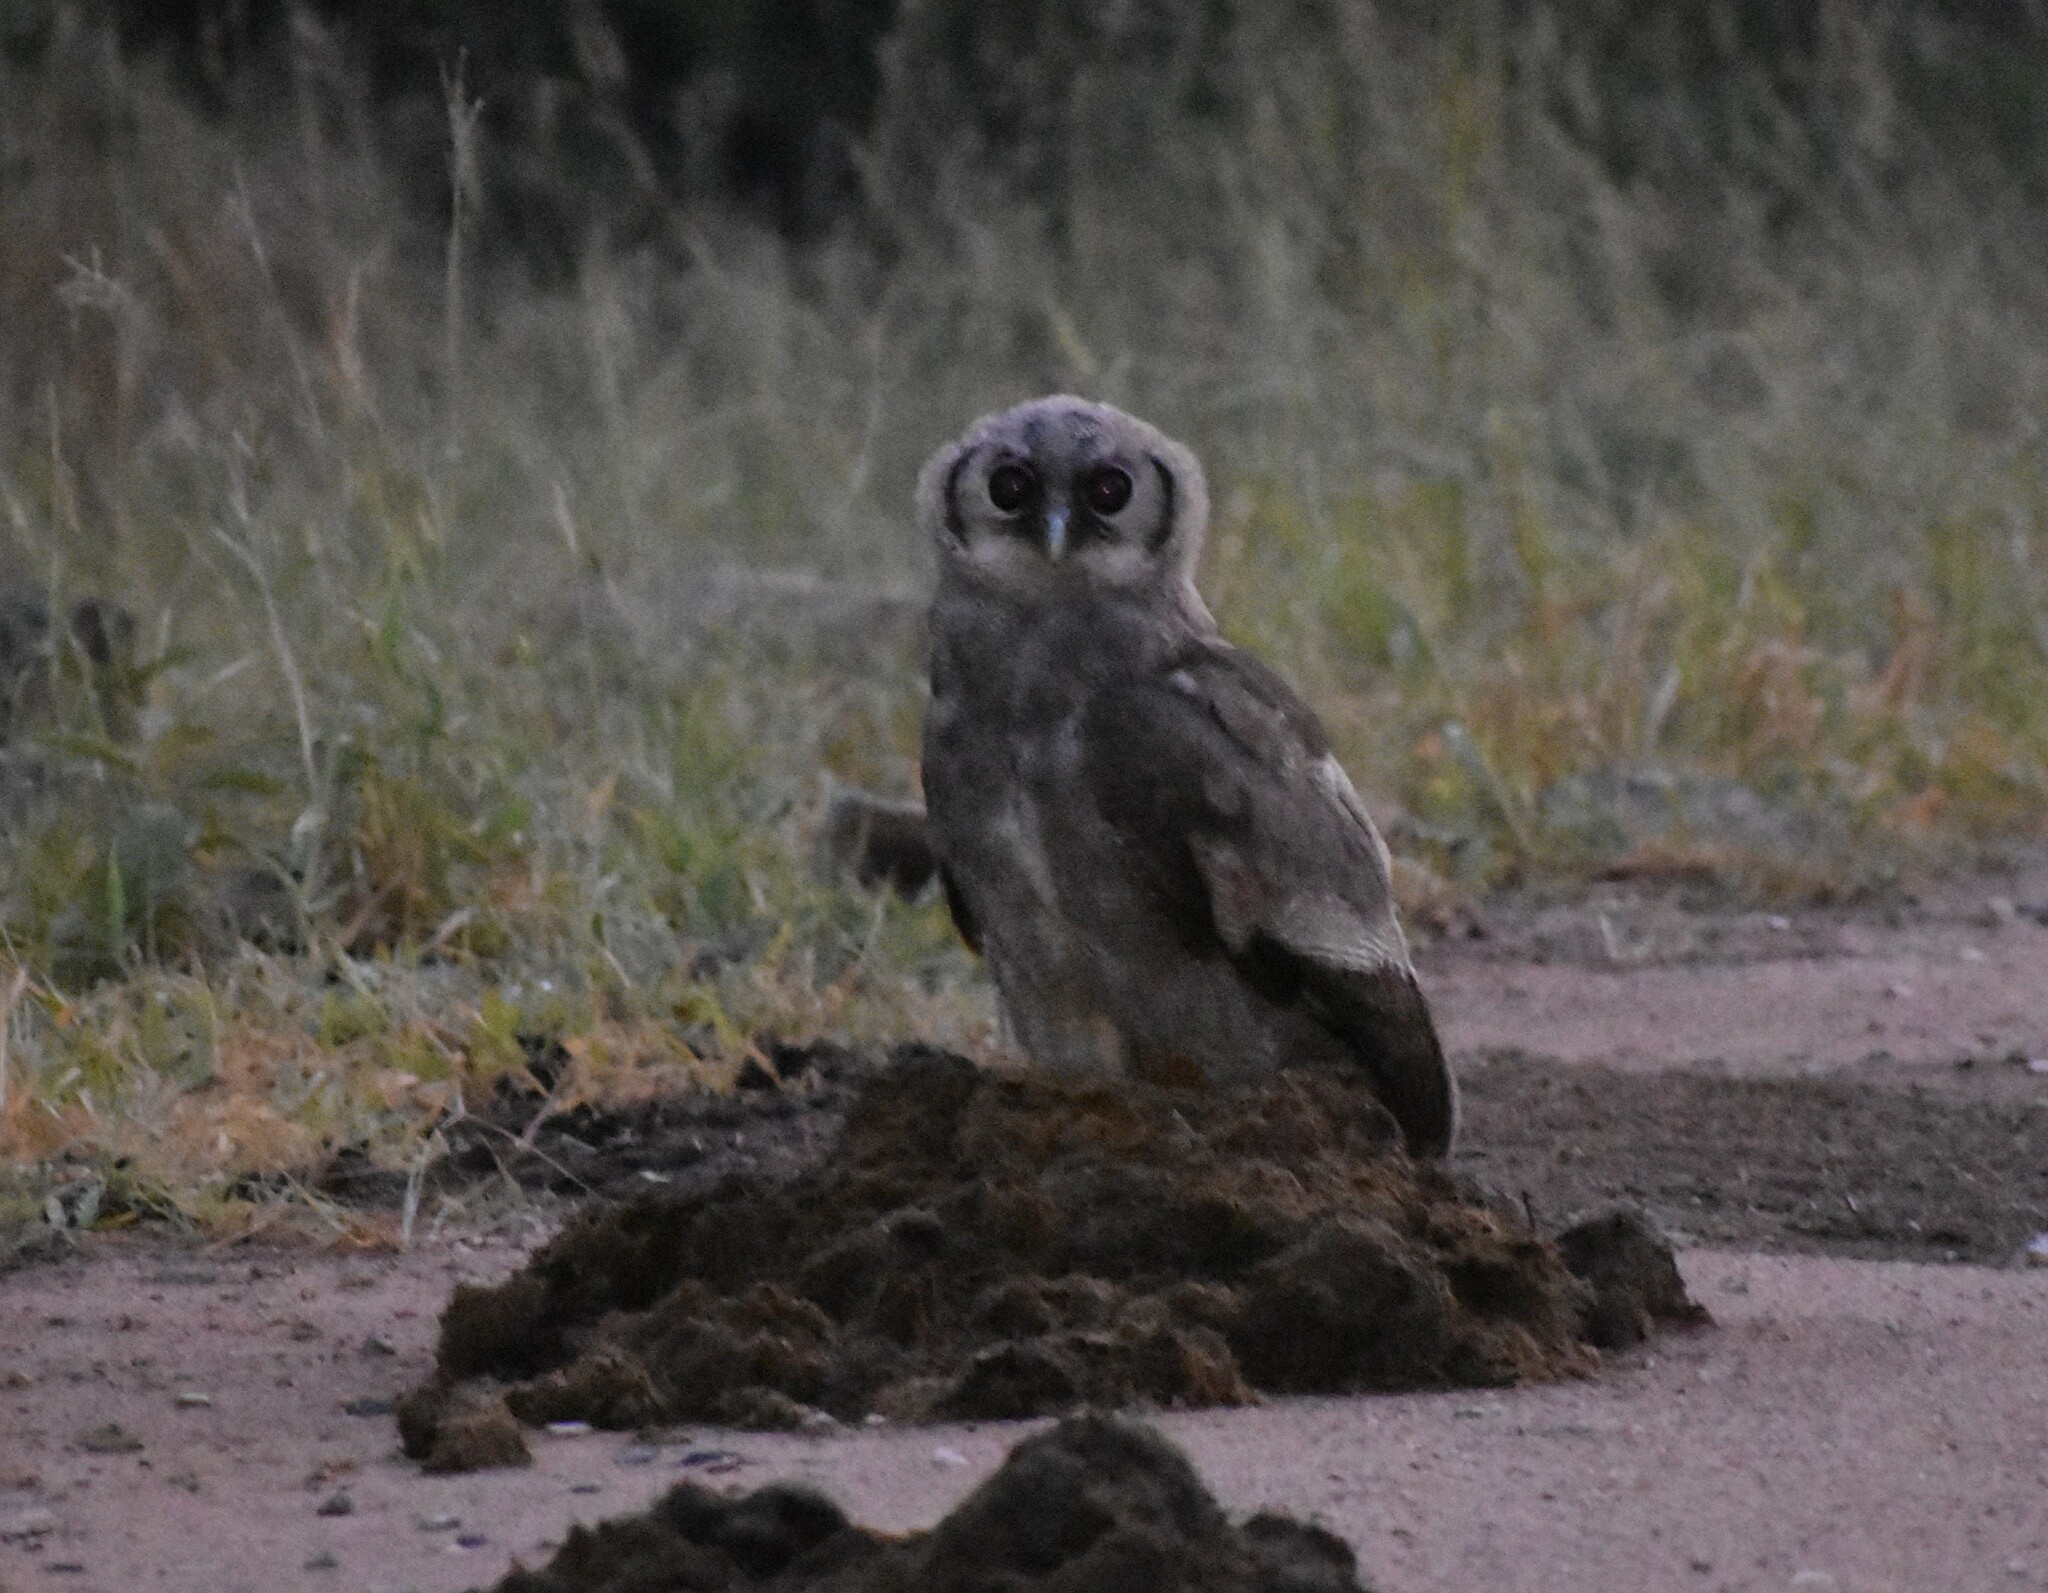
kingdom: Animalia
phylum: Chordata
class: Aves
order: Strigiformes
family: Strigidae
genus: Bubo
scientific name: Bubo lacteus
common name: Verreaux's eagle-owl
